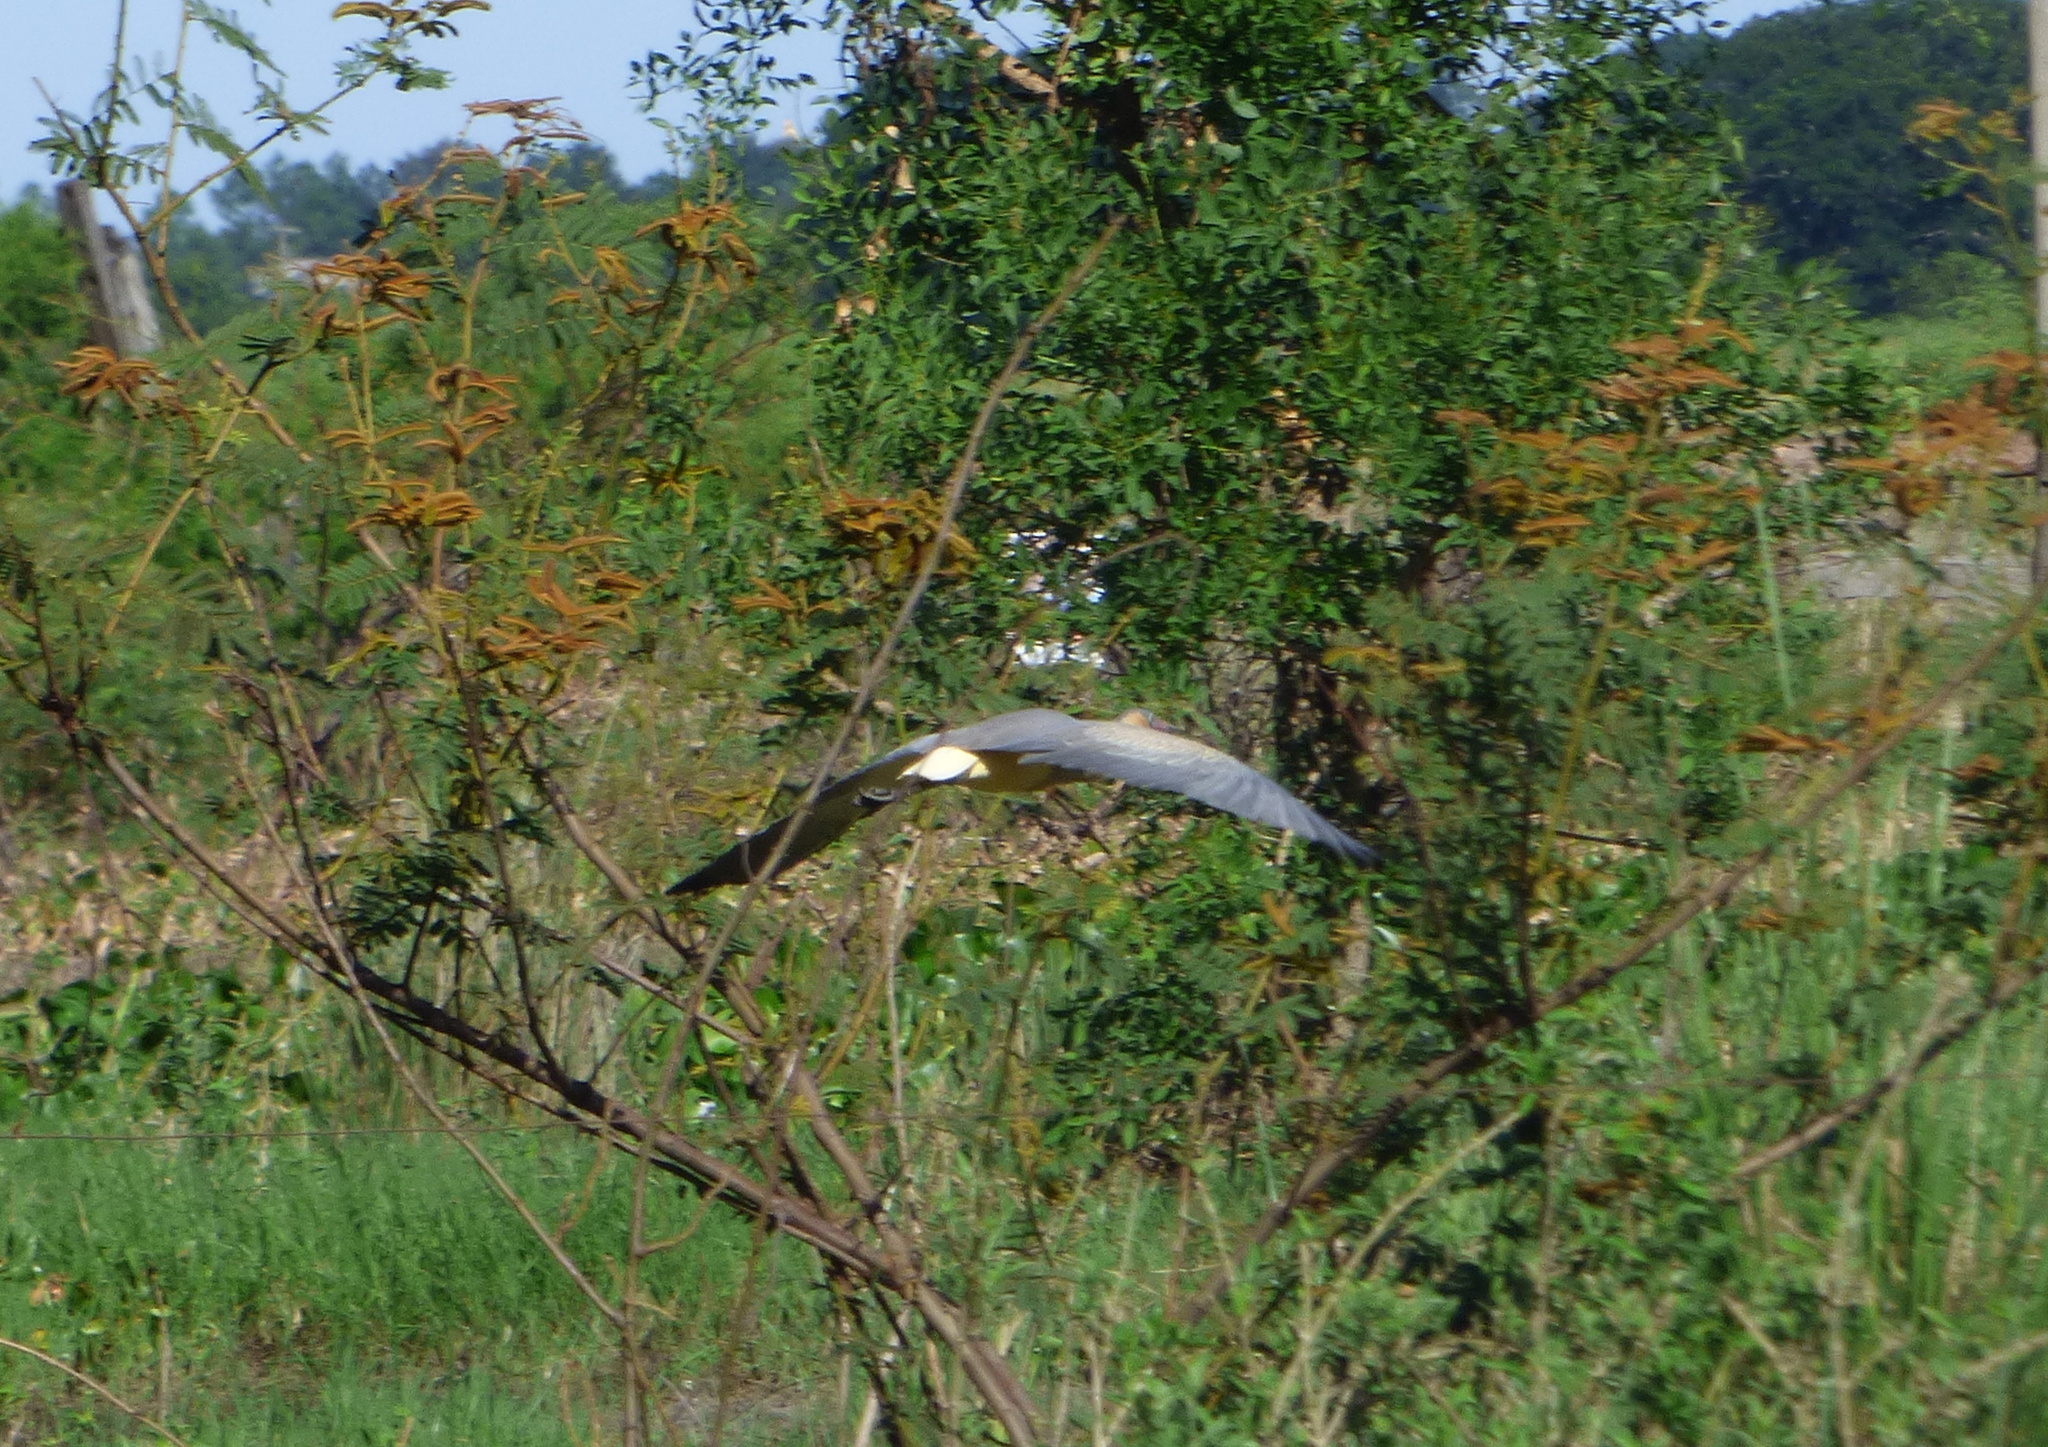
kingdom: Animalia
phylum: Chordata
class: Aves
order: Pelecaniformes
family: Ardeidae
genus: Syrigma
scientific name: Syrigma sibilatrix
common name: Whistling heron
